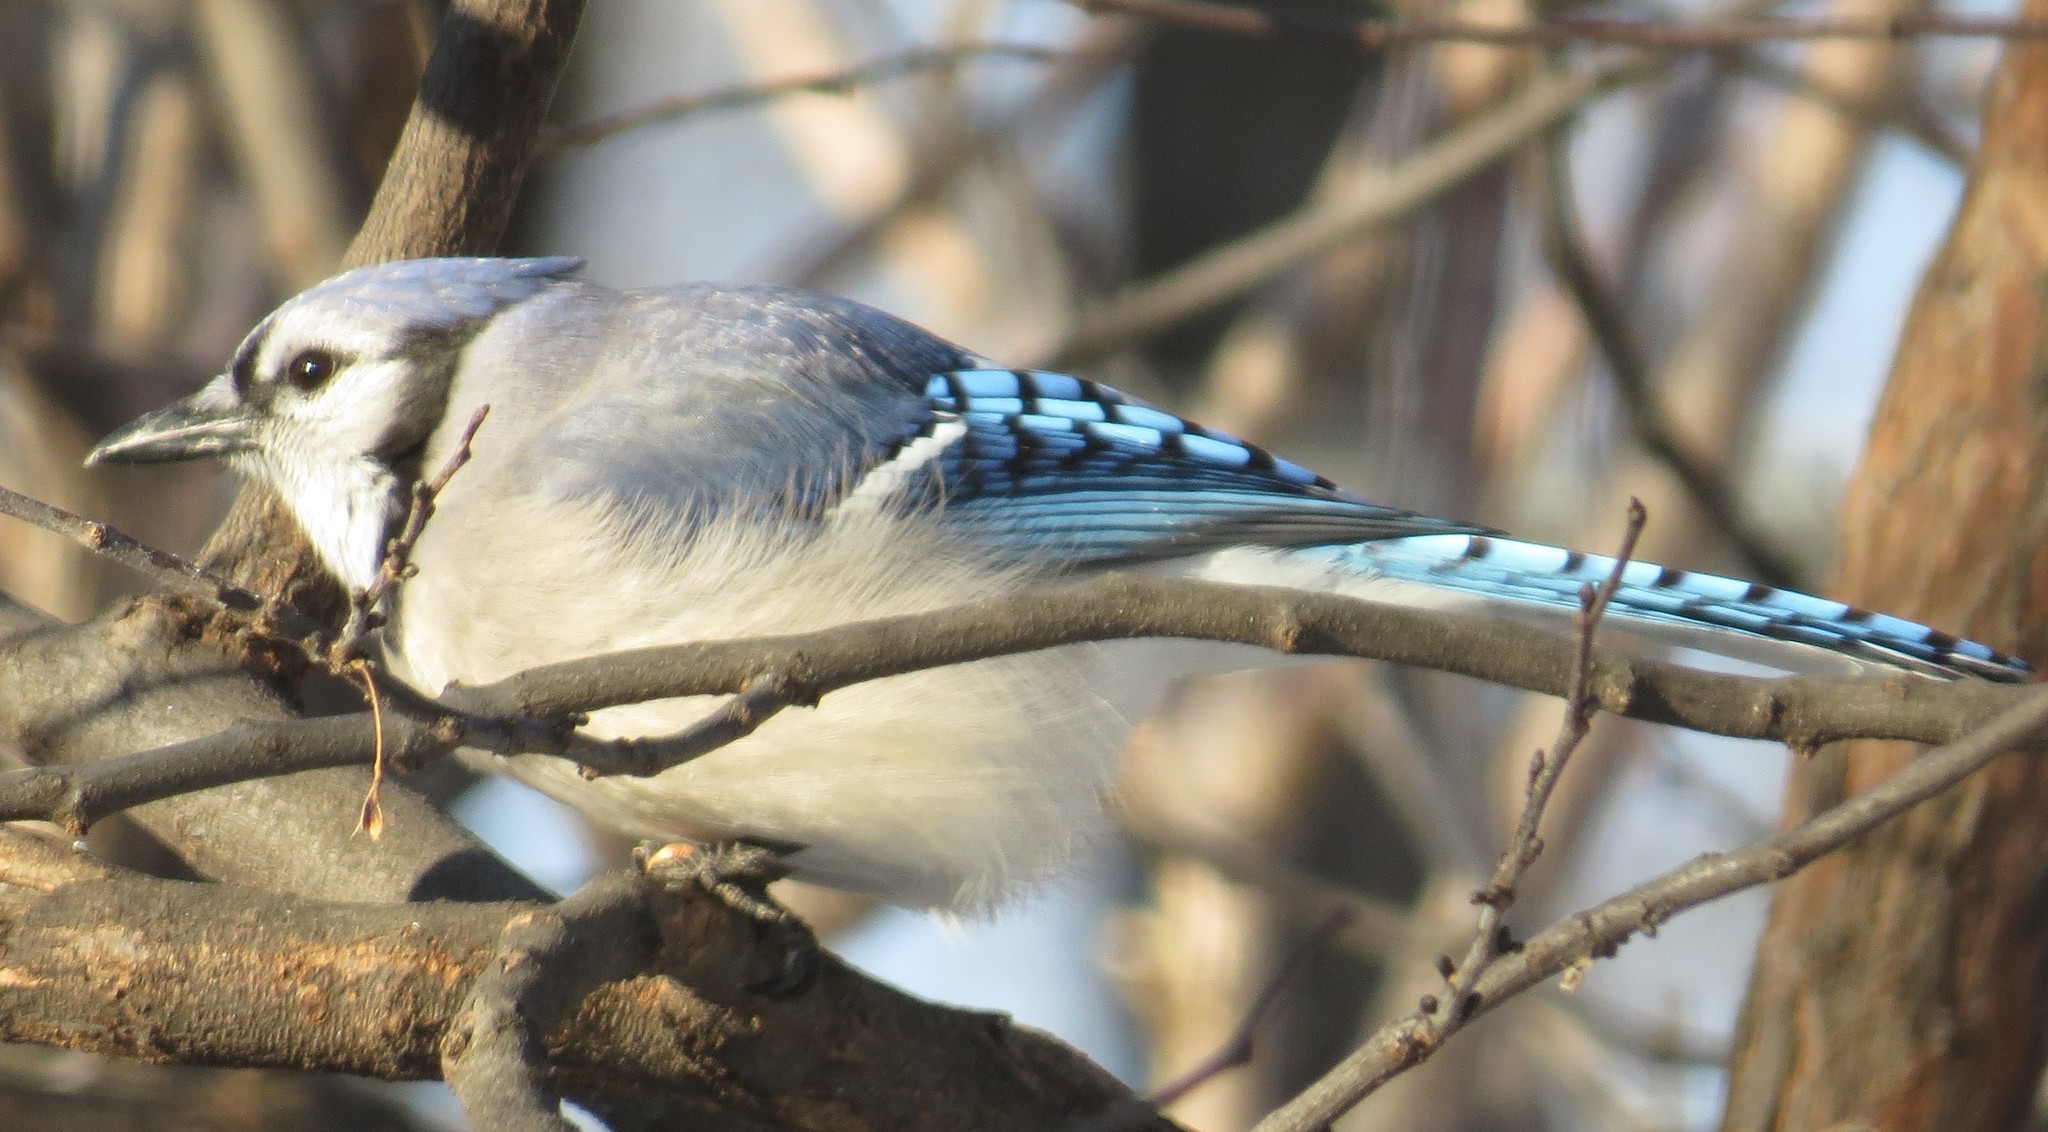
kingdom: Animalia
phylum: Chordata
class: Aves
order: Passeriformes
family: Corvidae
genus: Cyanocitta
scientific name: Cyanocitta cristata
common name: Blue jay
